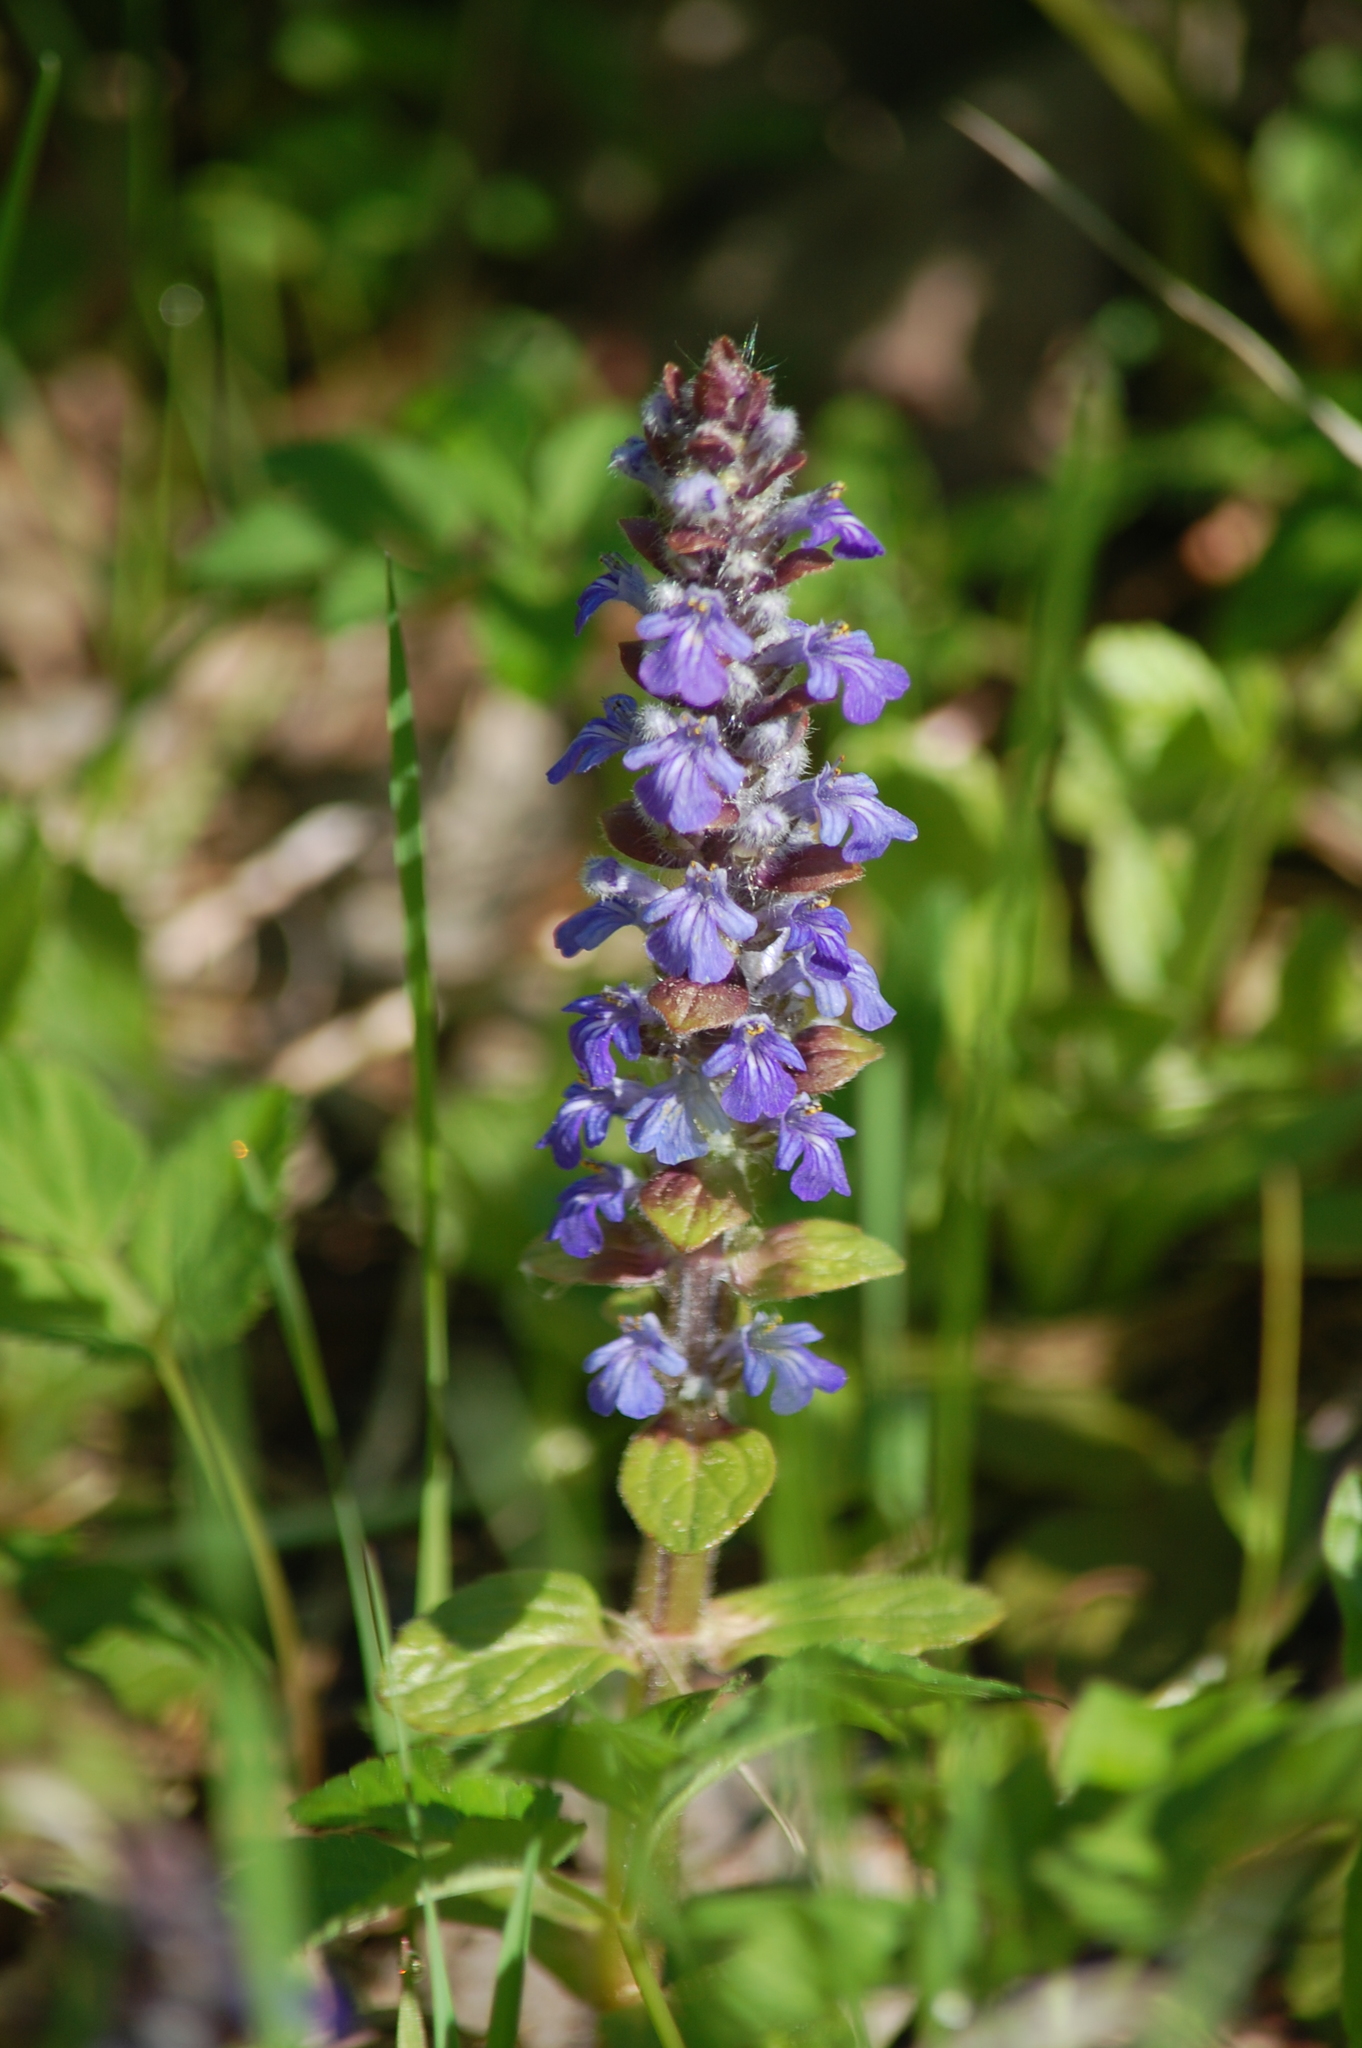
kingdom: Plantae
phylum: Tracheophyta
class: Magnoliopsida
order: Lamiales
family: Lamiaceae
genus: Ajuga
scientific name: Ajuga reptans
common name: Bugle
